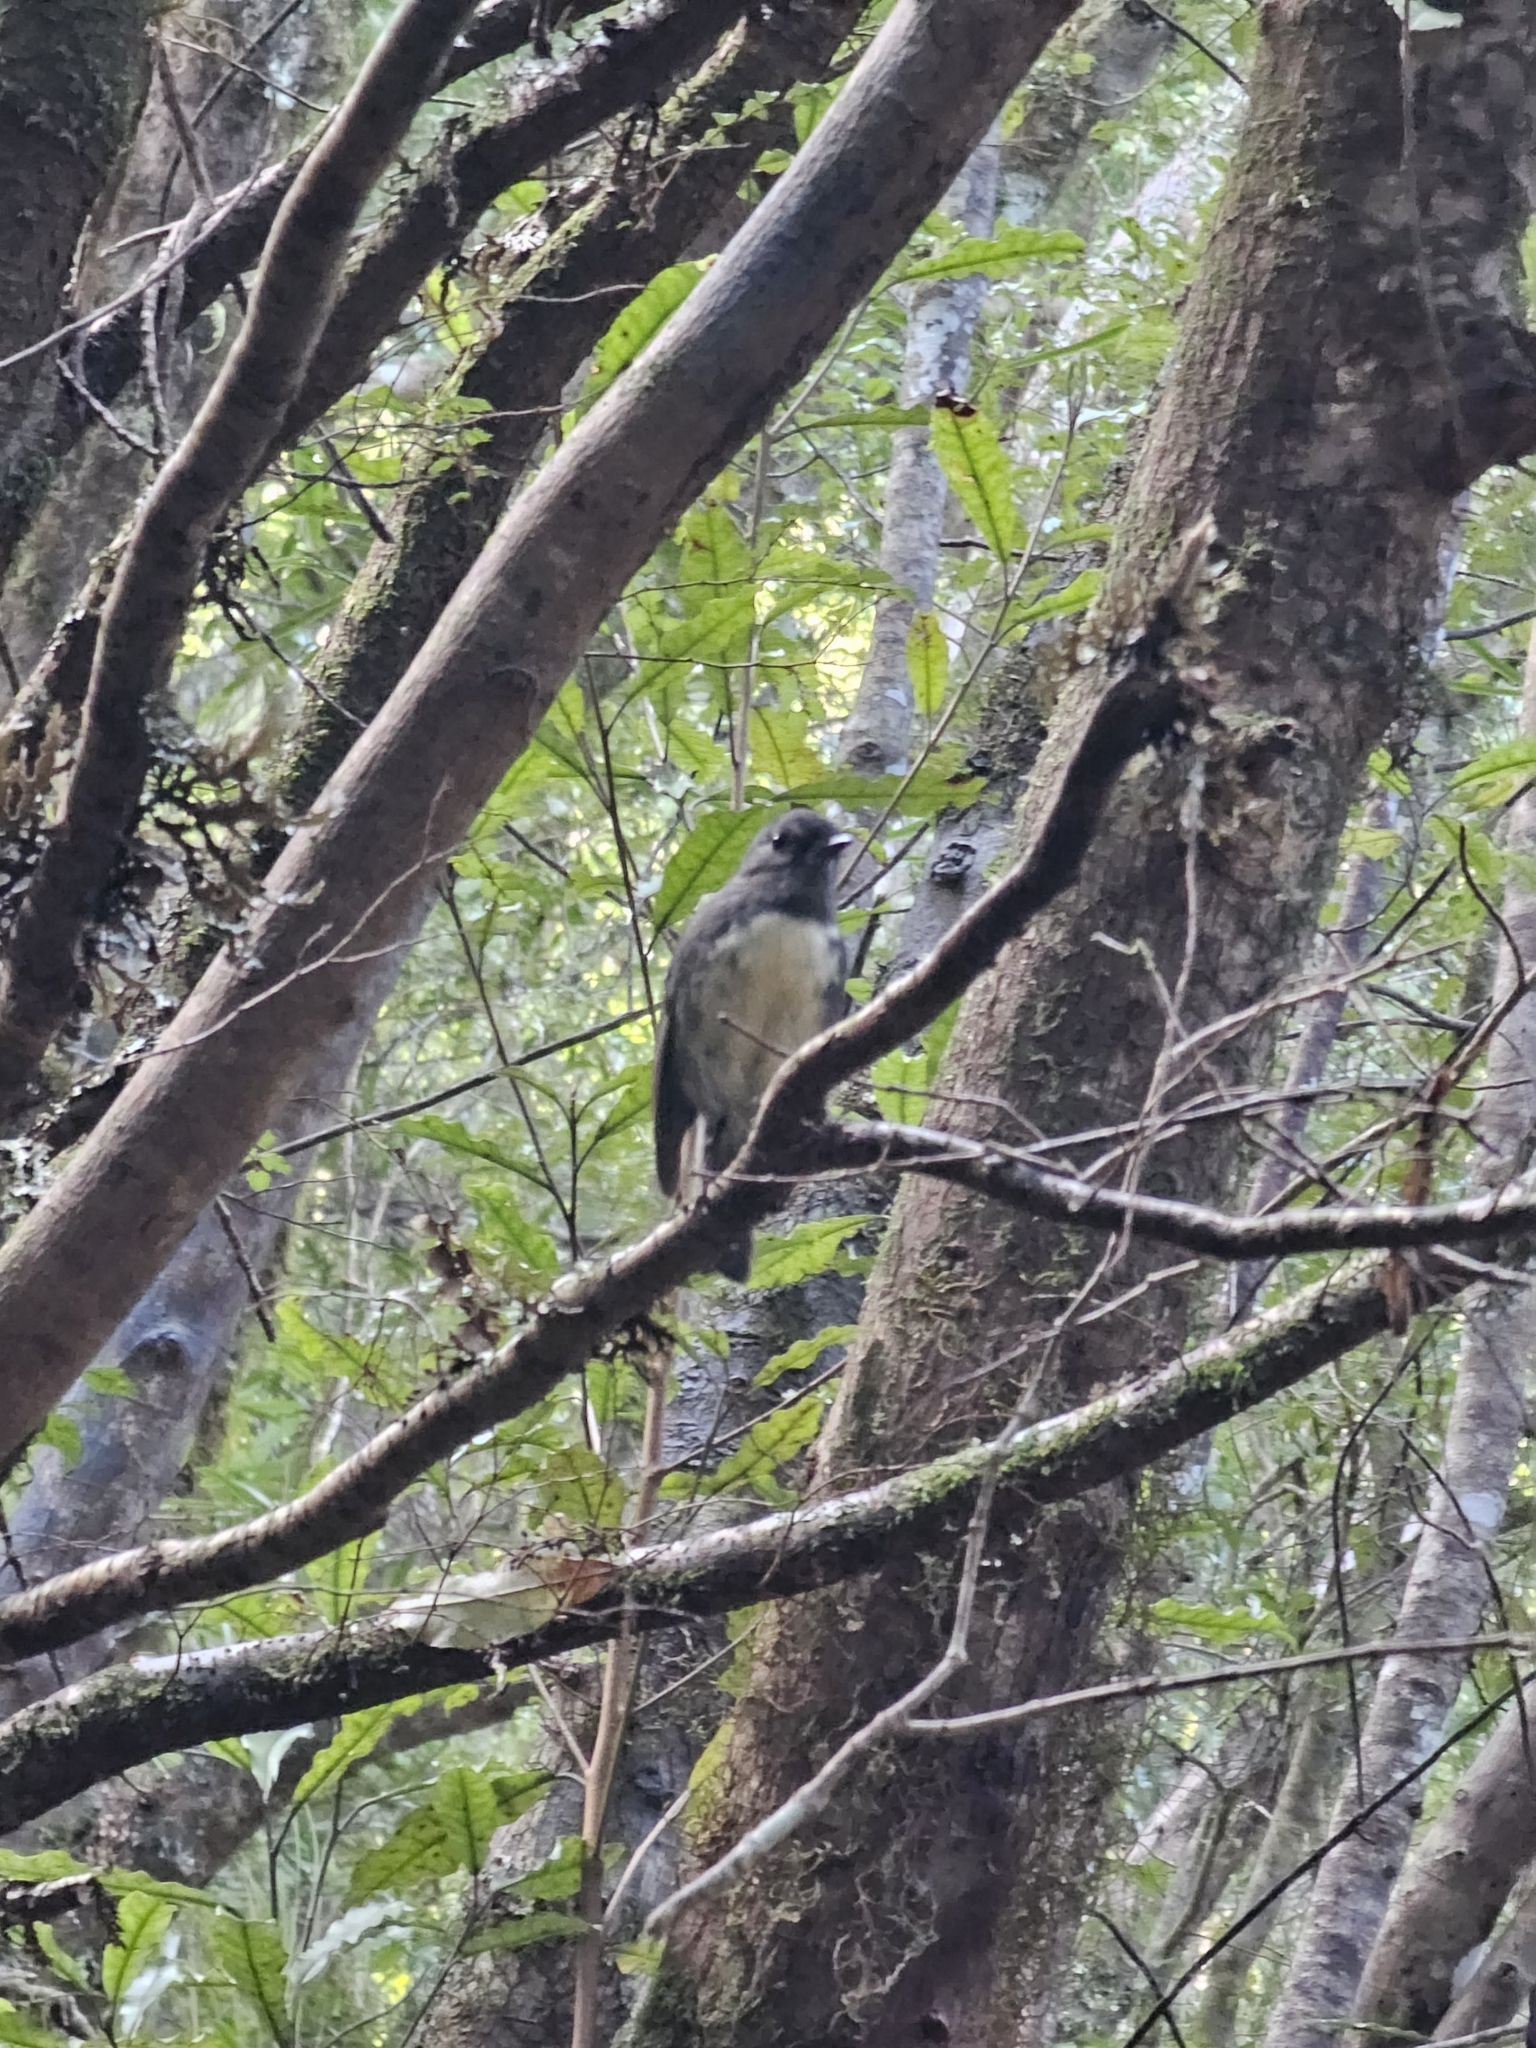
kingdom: Animalia
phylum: Chordata
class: Aves
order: Passeriformes
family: Petroicidae
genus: Petroica
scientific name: Petroica australis
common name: New zealand robin
